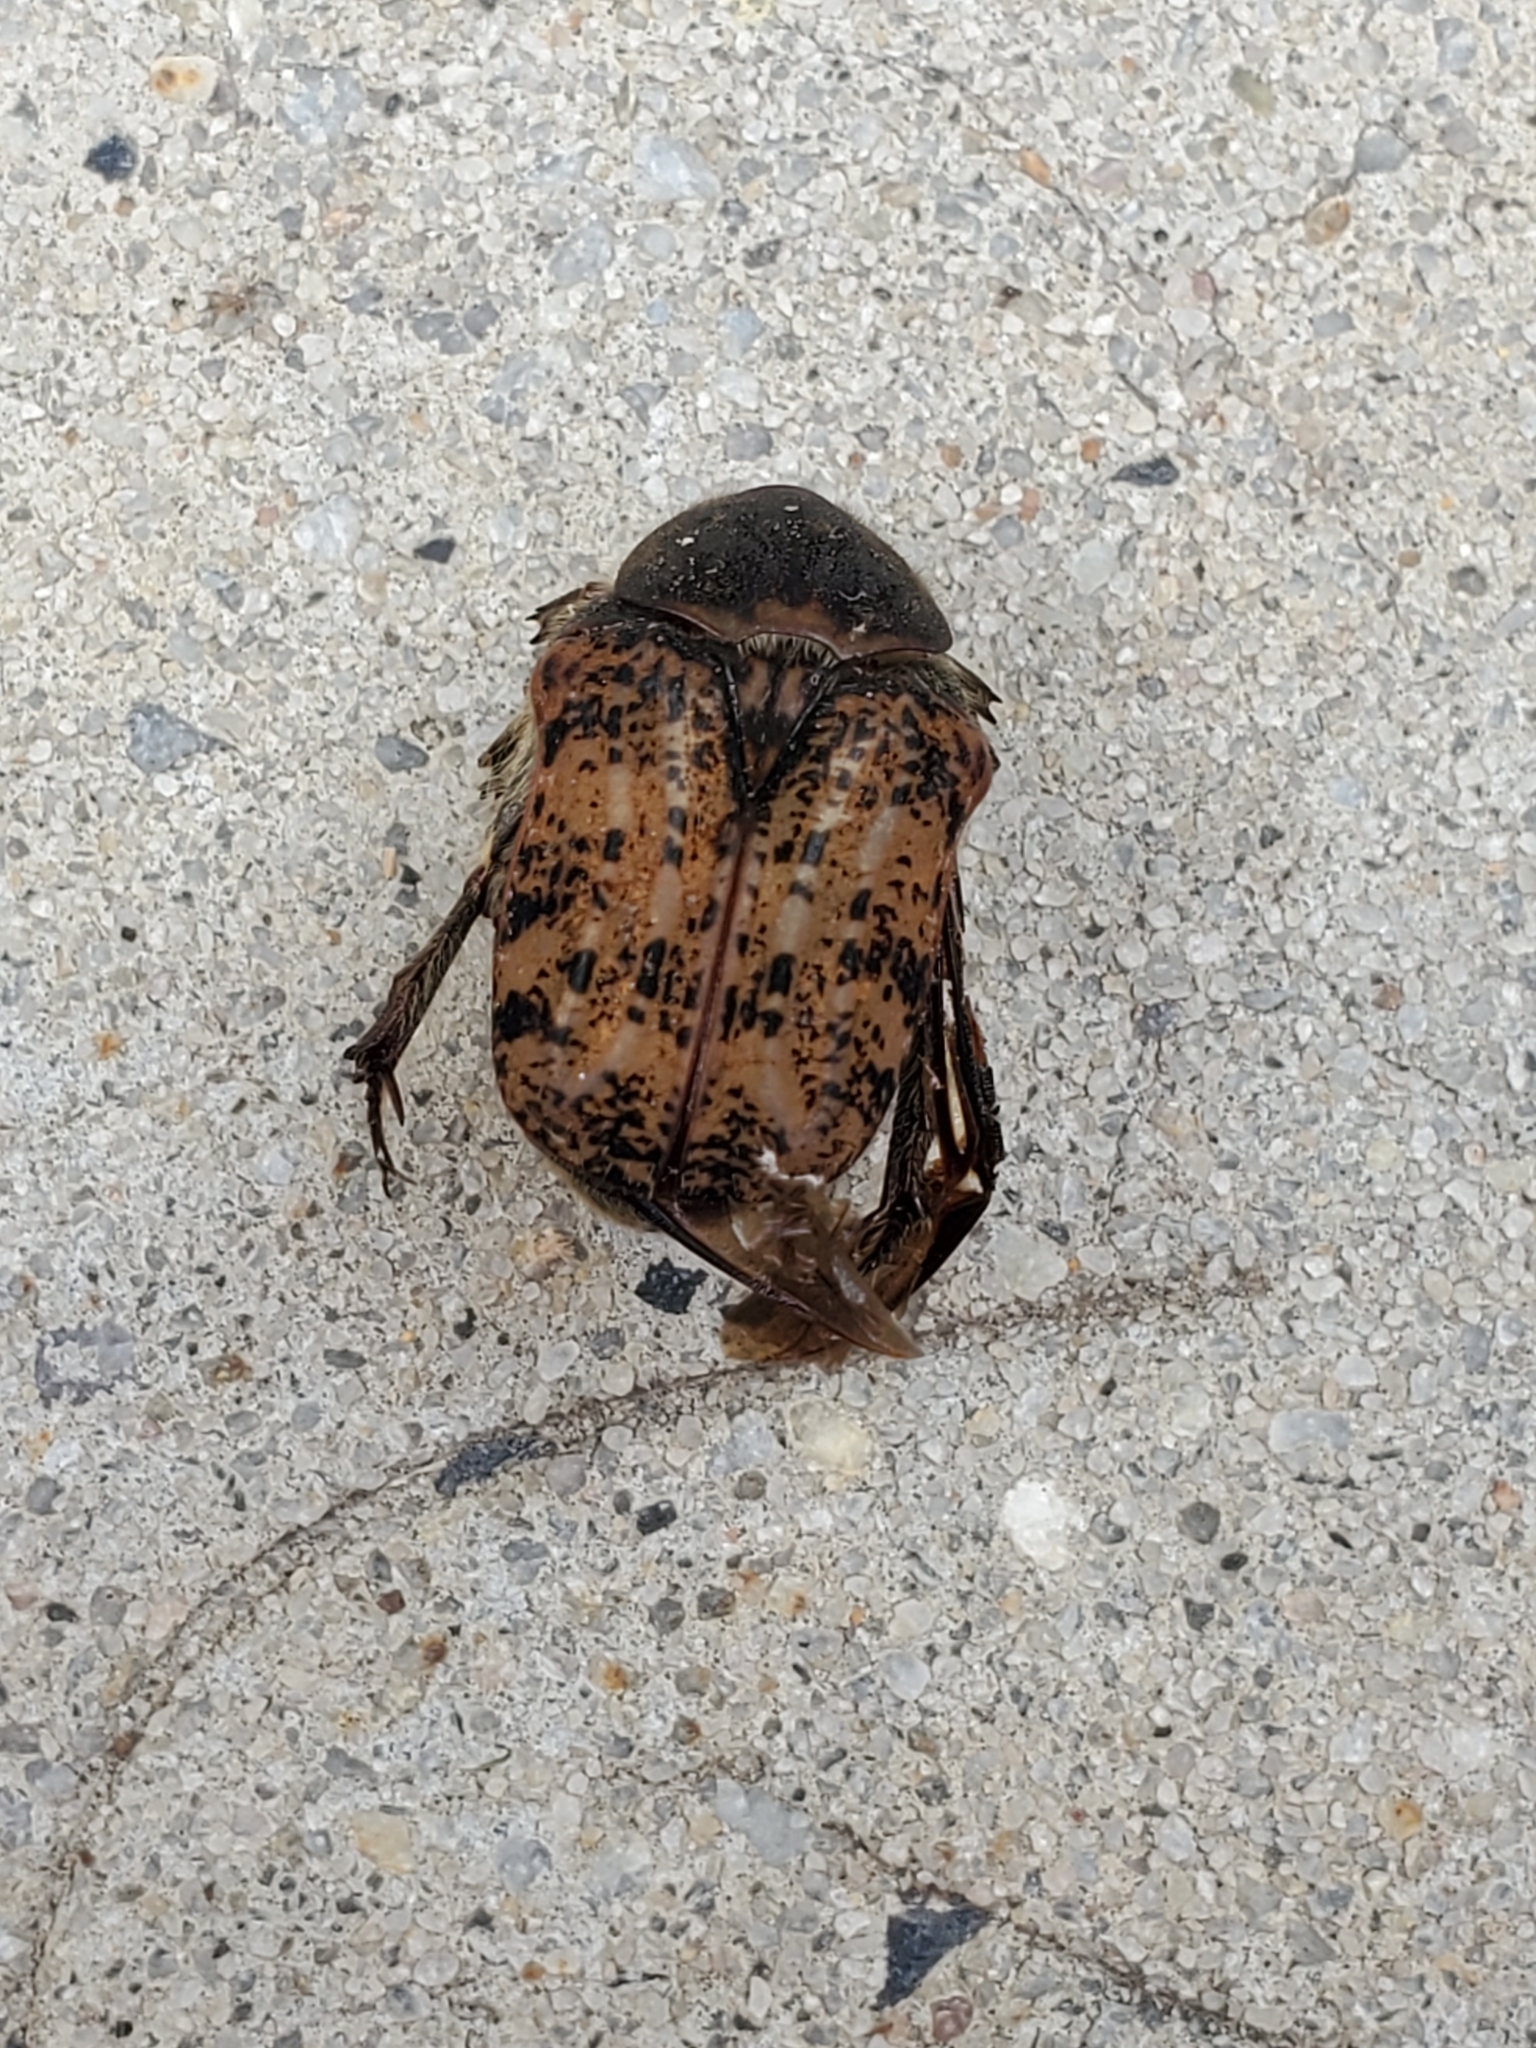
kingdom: Animalia
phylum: Arthropoda
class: Insecta
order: Coleoptera
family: Scarabaeidae
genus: Euphoria
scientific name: Euphoria inda
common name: Bumble flower beetle
